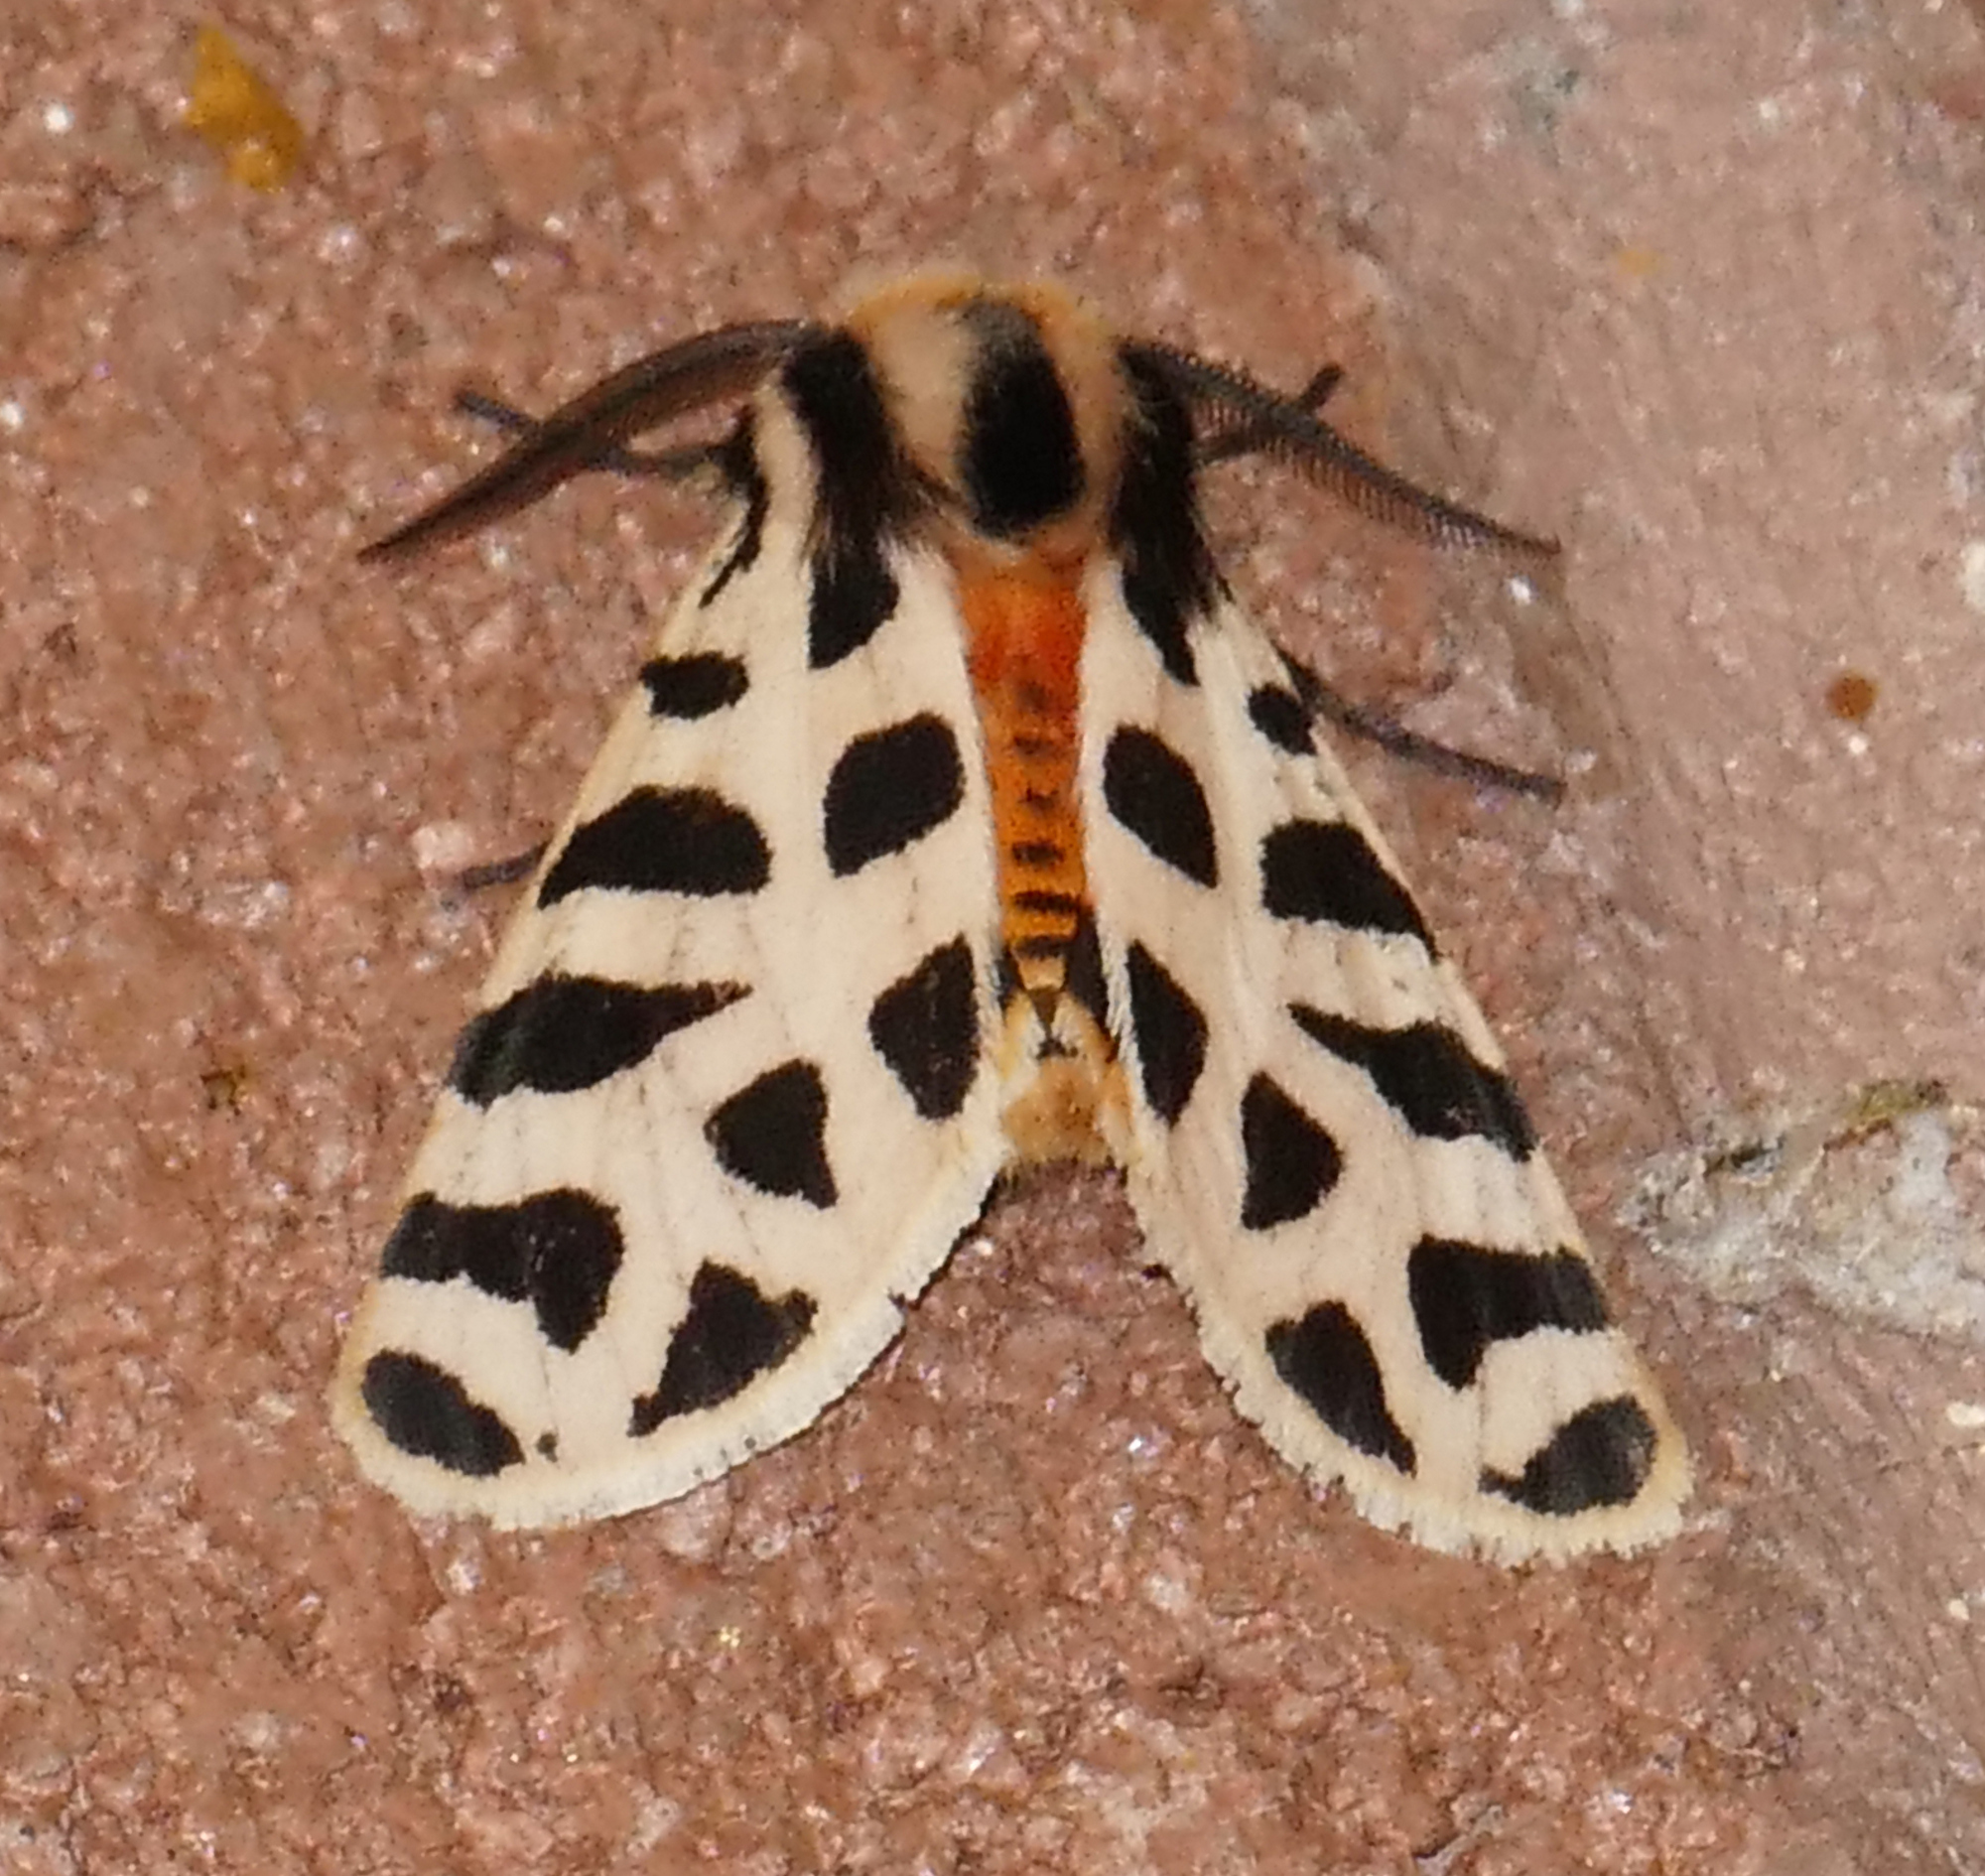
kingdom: Animalia
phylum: Arthropoda
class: Insecta
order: Lepidoptera
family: Erebidae
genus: Apantesis
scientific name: Apantesis incorrupta
